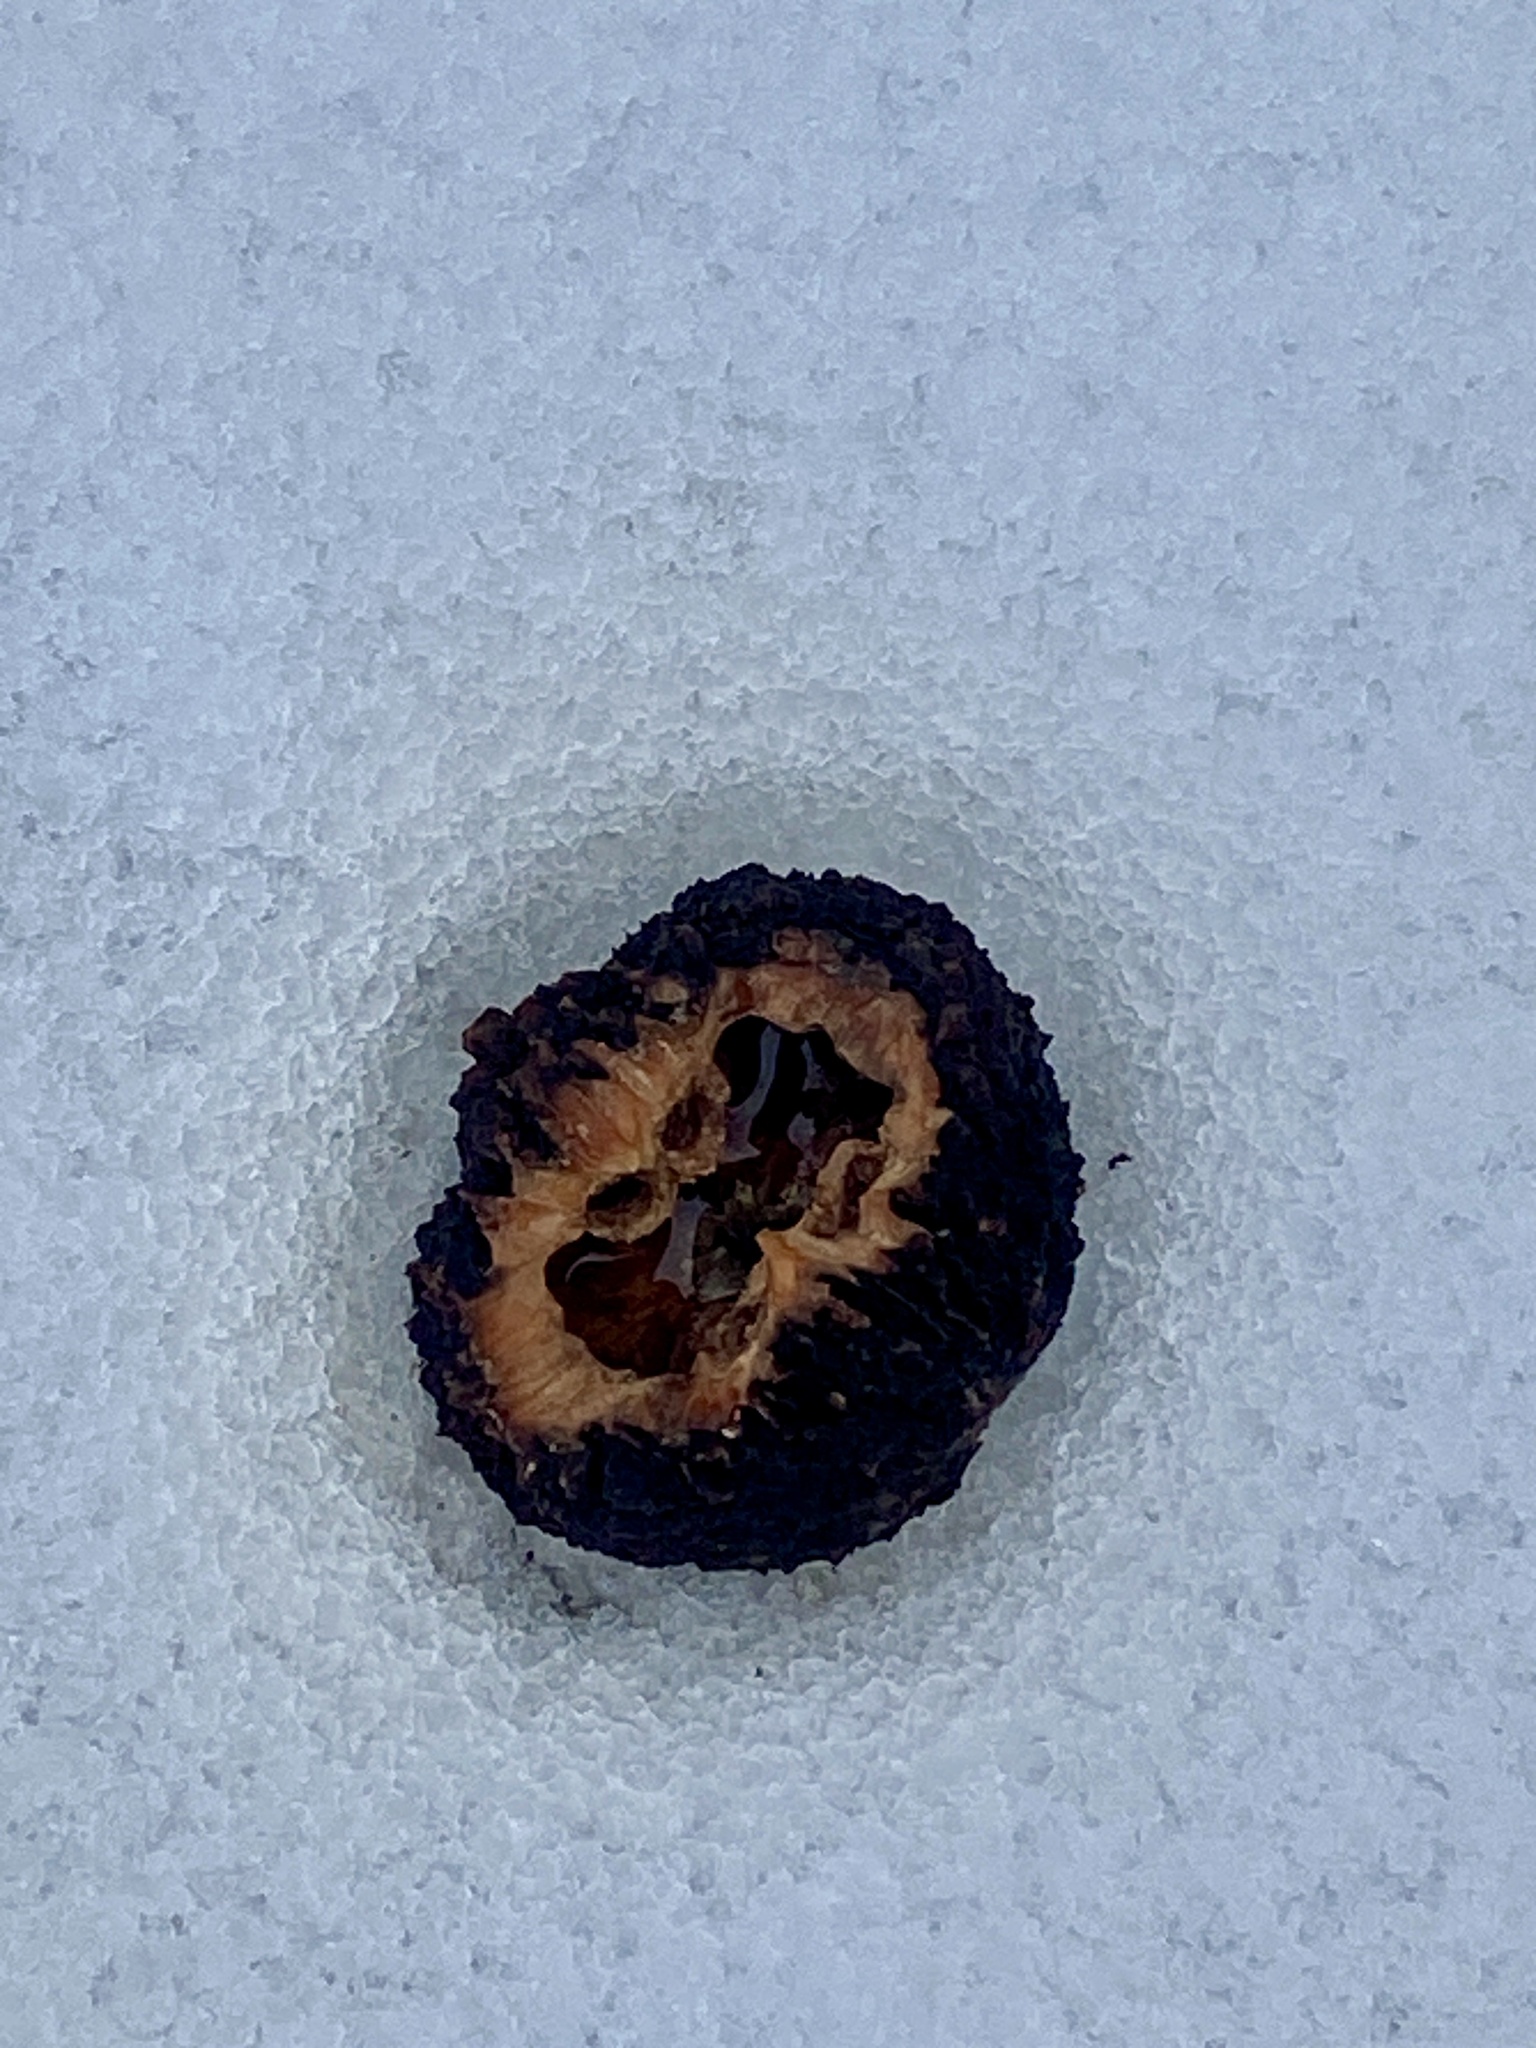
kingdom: Plantae
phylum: Tracheophyta
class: Magnoliopsida
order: Fagales
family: Juglandaceae
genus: Juglans
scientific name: Juglans nigra
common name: Black walnut
